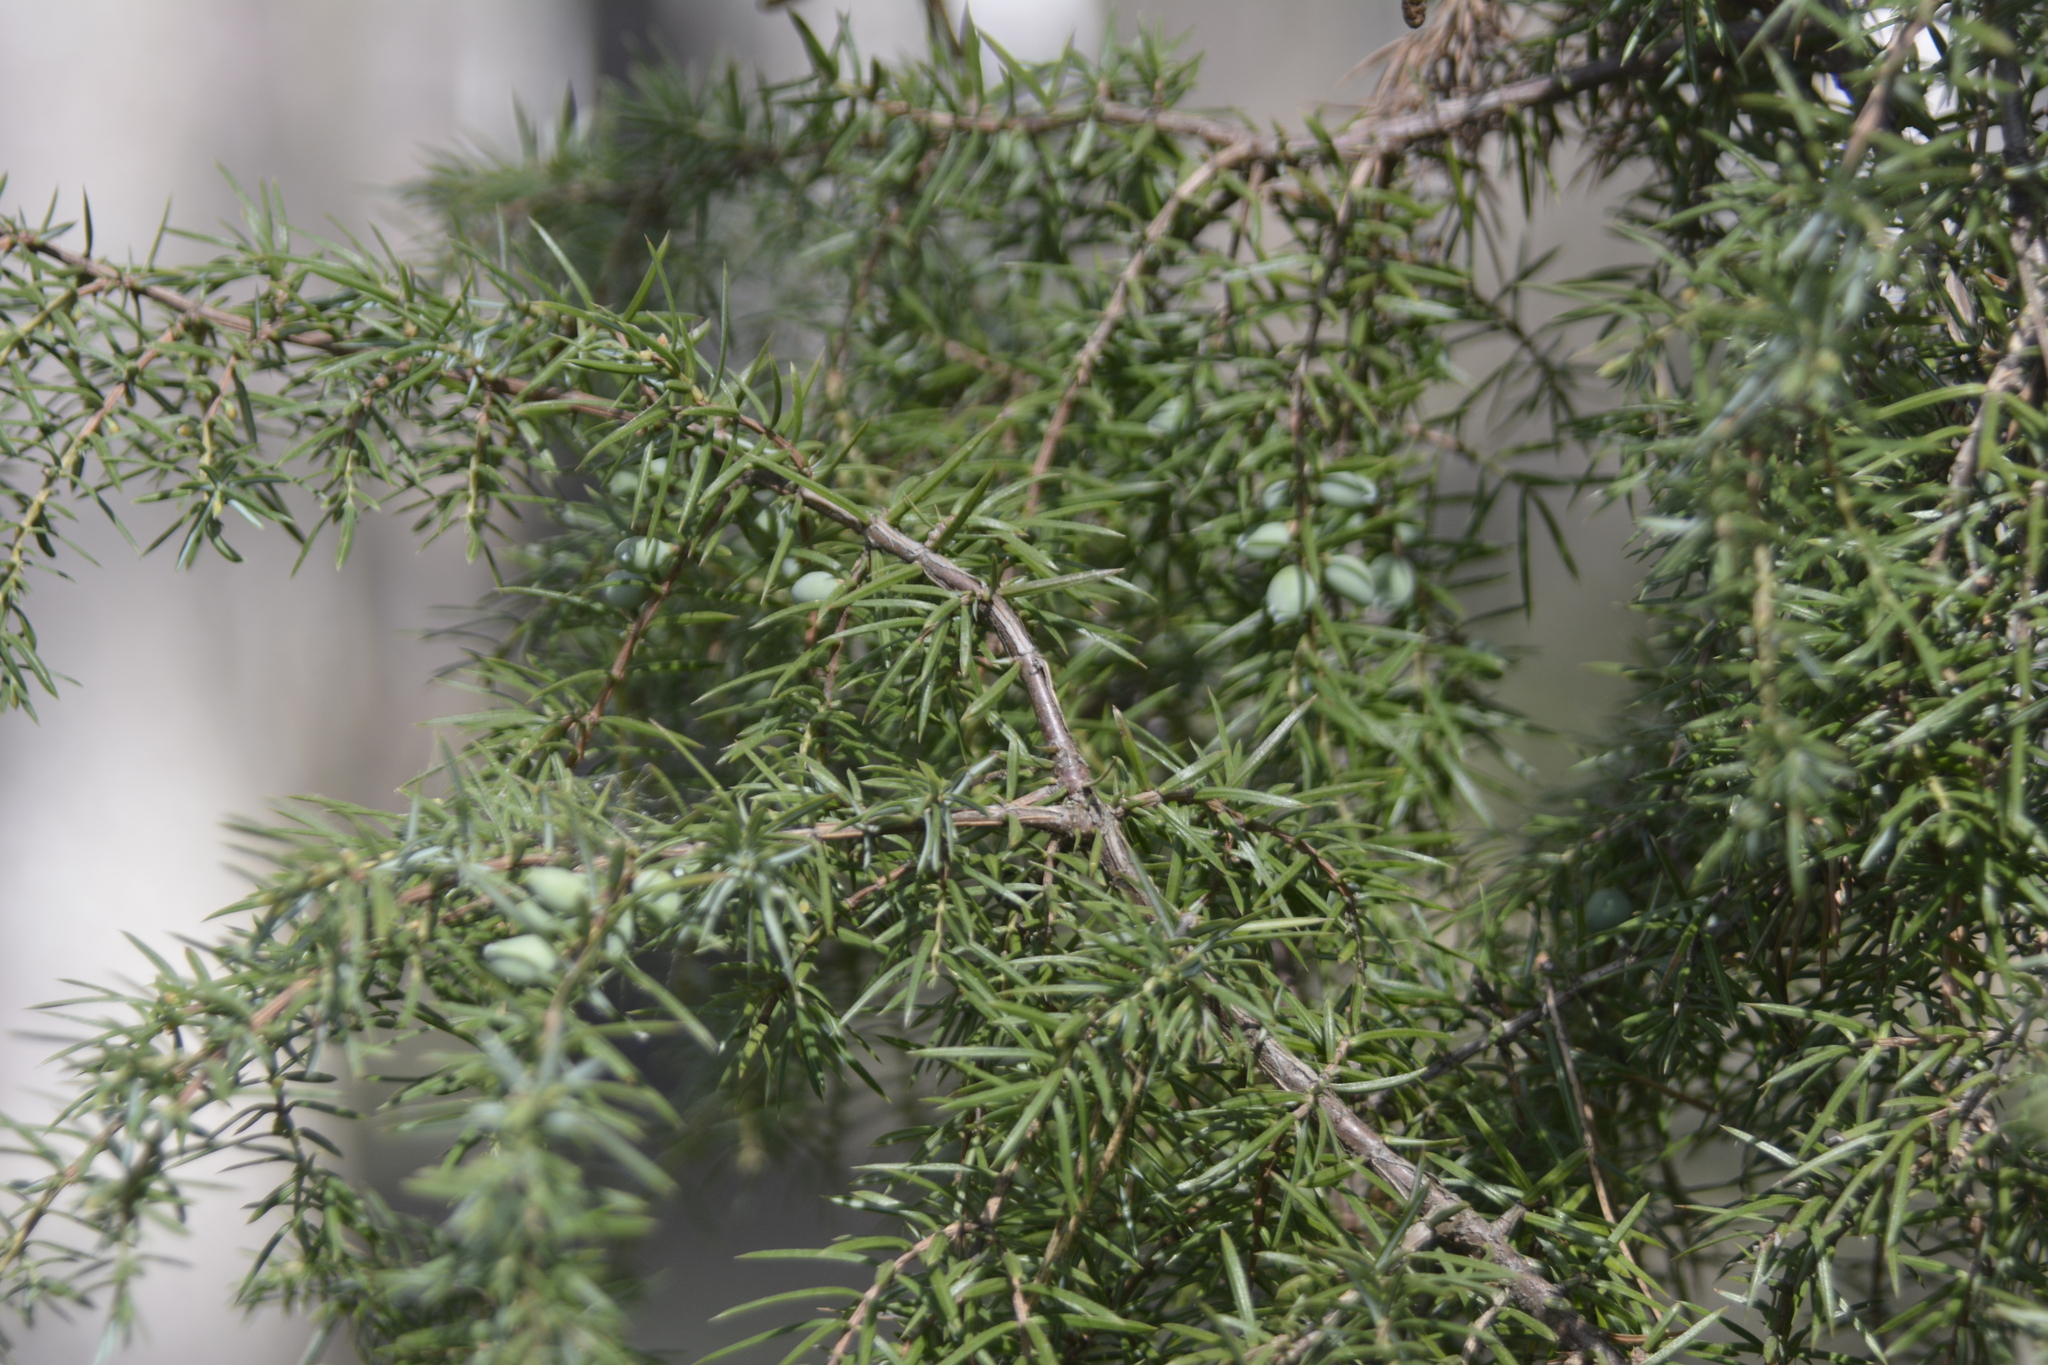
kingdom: Plantae
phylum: Tracheophyta
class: Pinopsida
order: Pinales
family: Cupressaceae
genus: Juniperus
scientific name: Juniperus communis
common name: Common juniper
